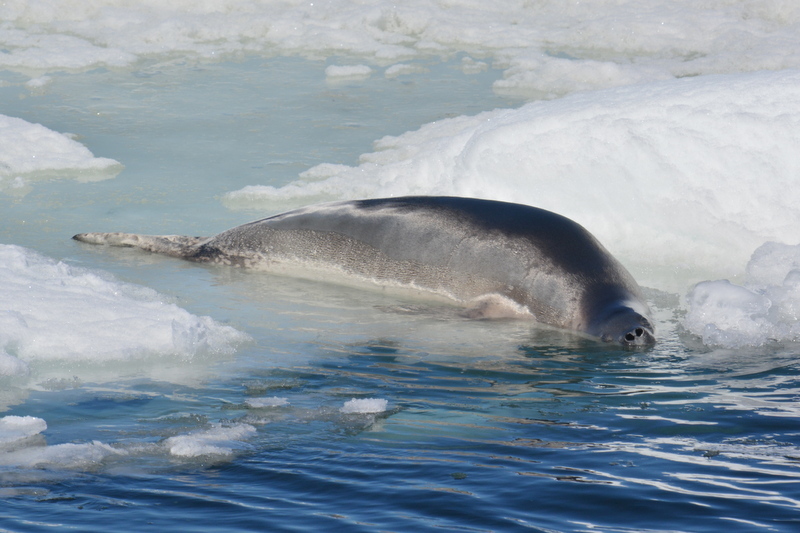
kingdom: Animalia
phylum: Chordata
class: Mammalia
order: Carnivora
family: Phocidae
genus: Lobodon
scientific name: Lobodon carcinophaga
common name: Crabeater seal
